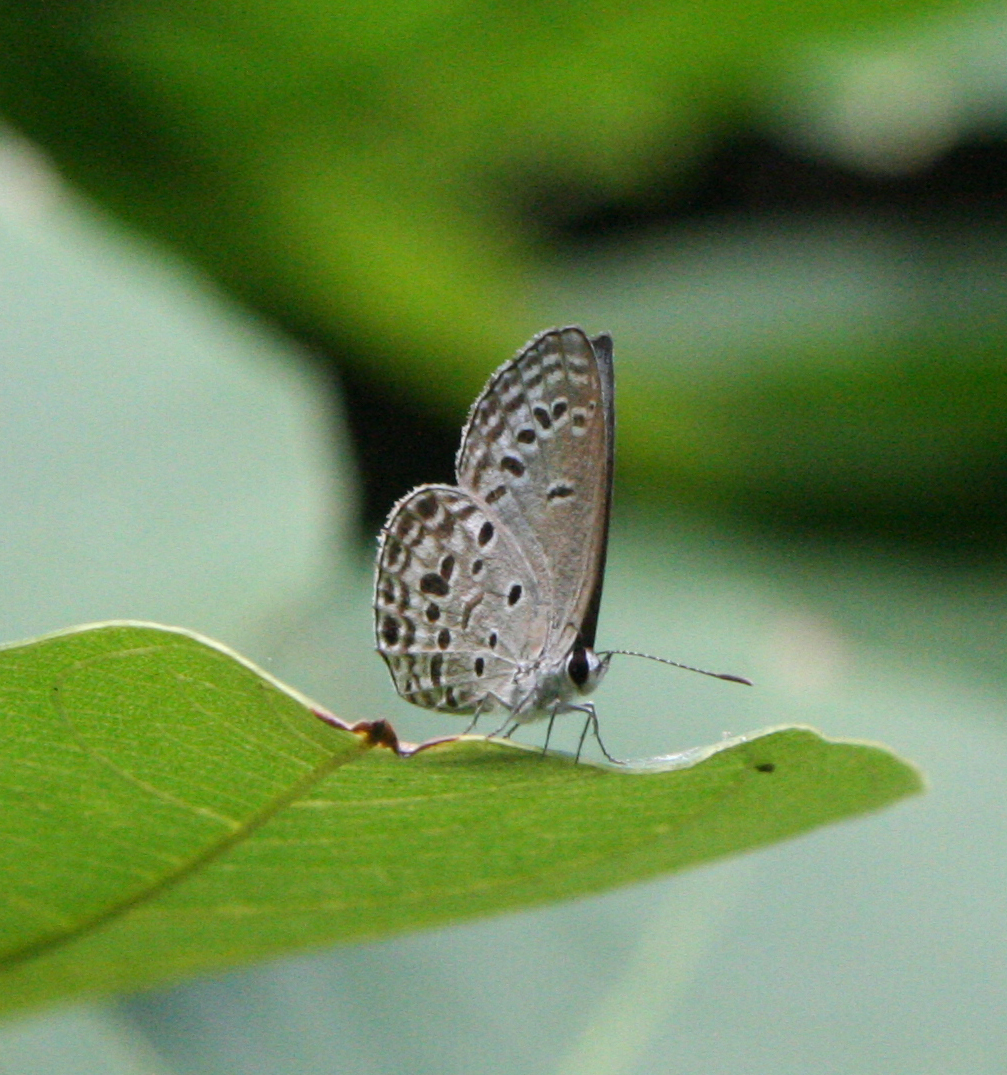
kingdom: Animalia
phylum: Arthropoda
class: Insecta
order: Lepidoptera
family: Lycaenidae
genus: Chilades
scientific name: Chilades laius
